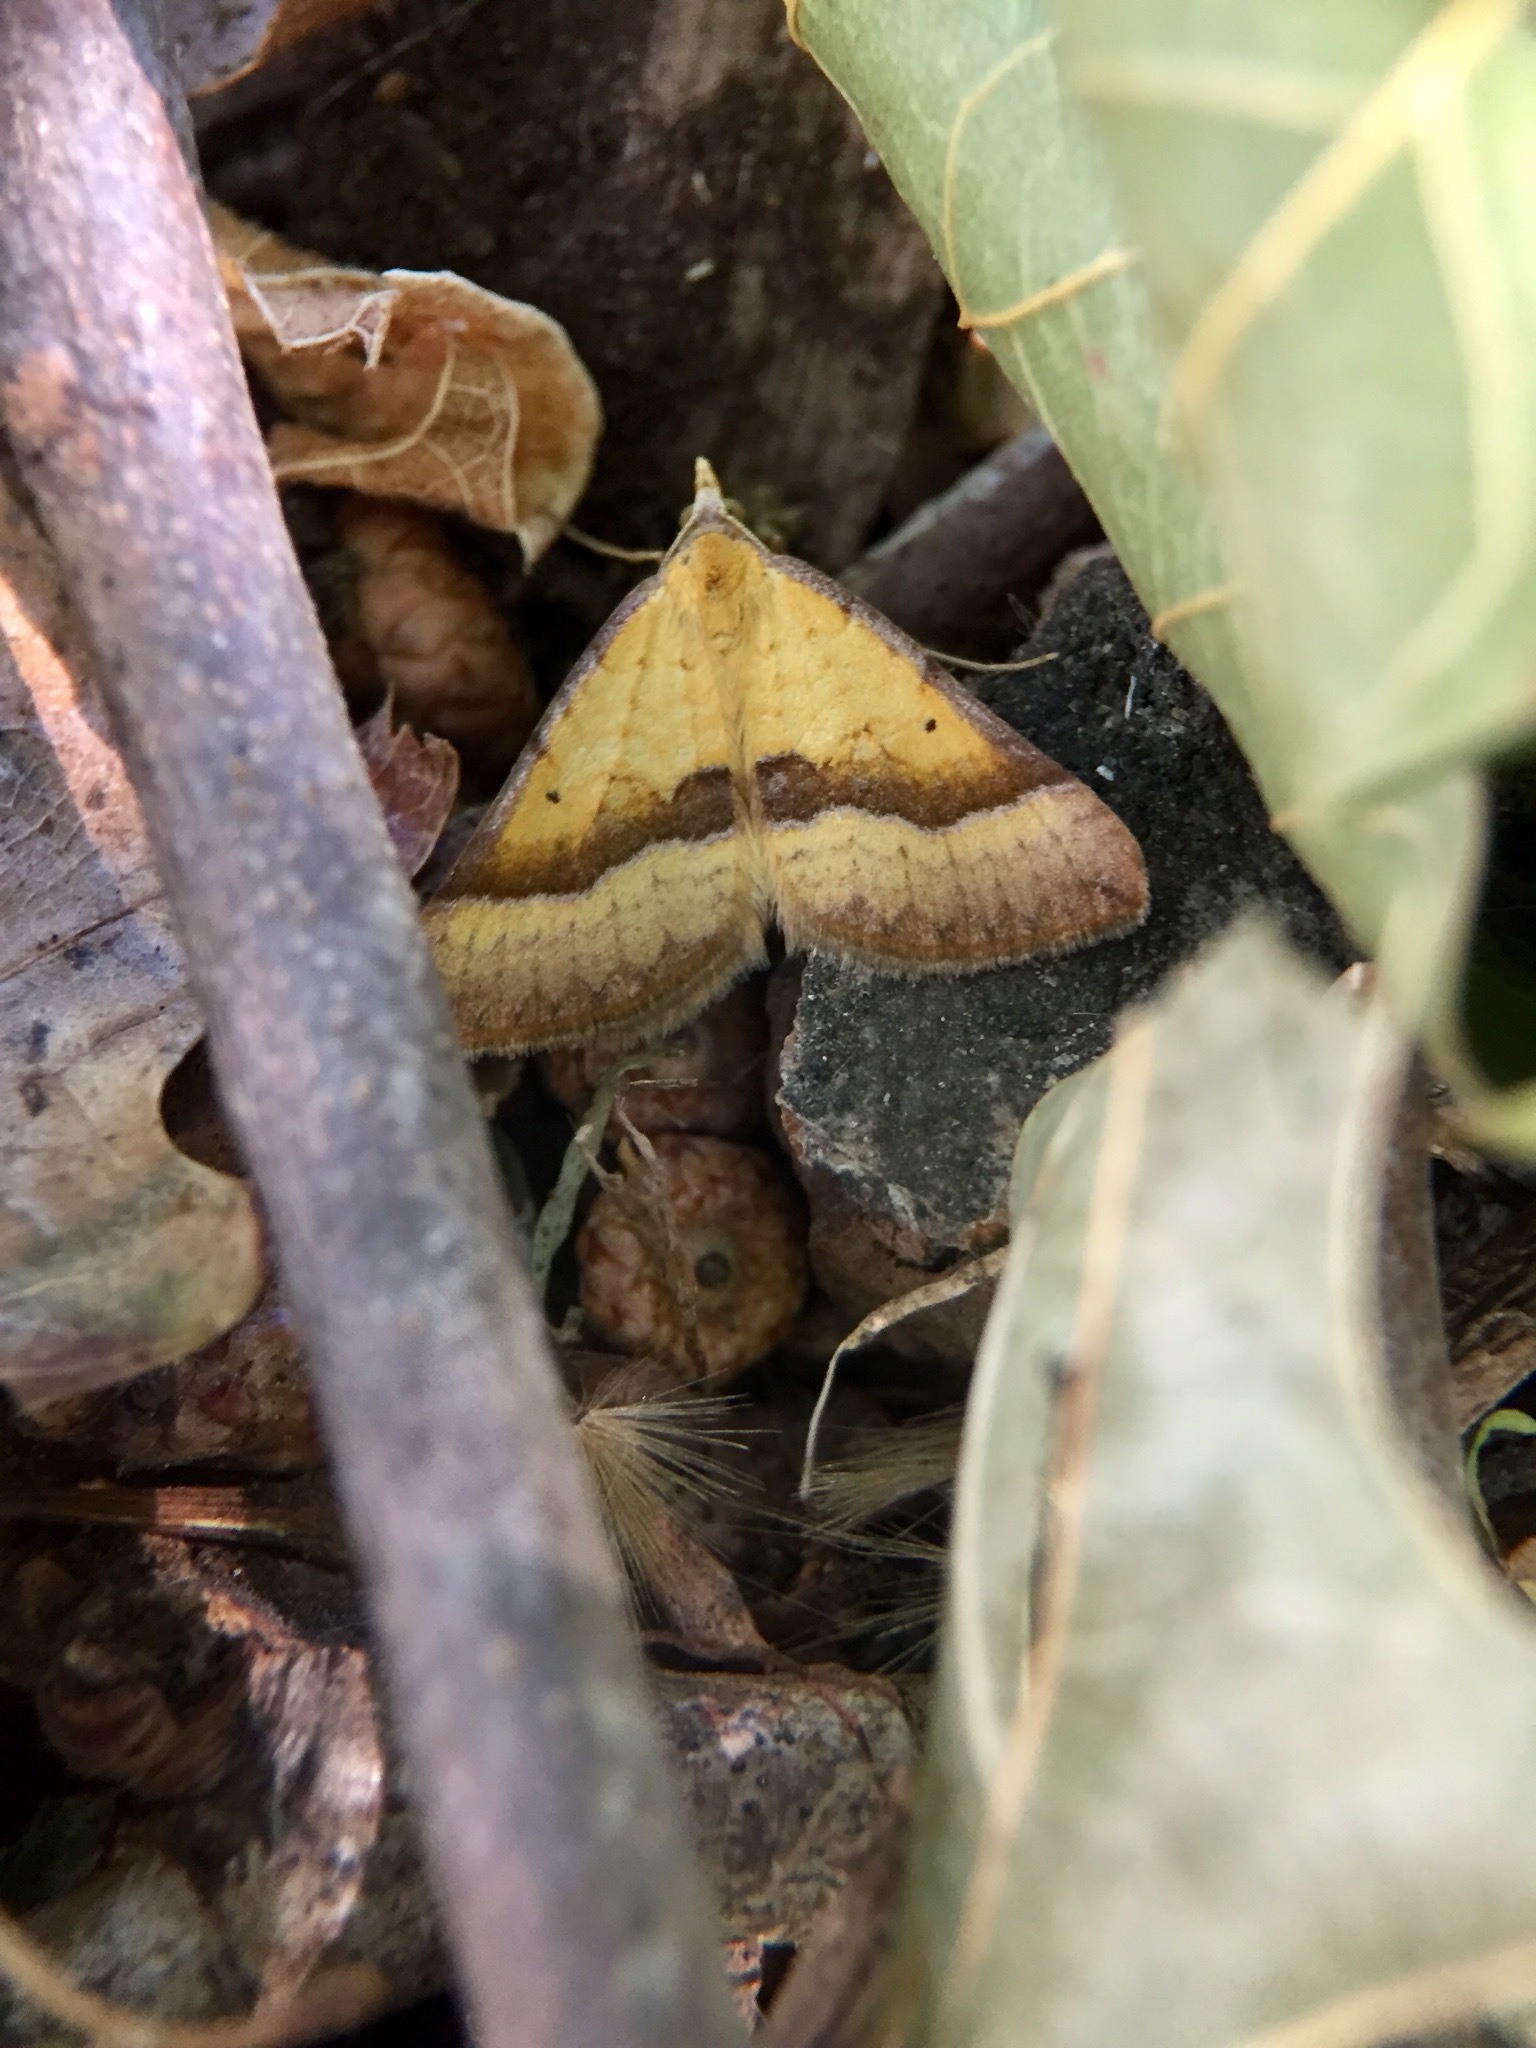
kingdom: Animalia
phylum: Arthropoda
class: Insecta
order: Lepidoptera
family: Geometridae
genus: Anachloris
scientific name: Anachloris subochraria
